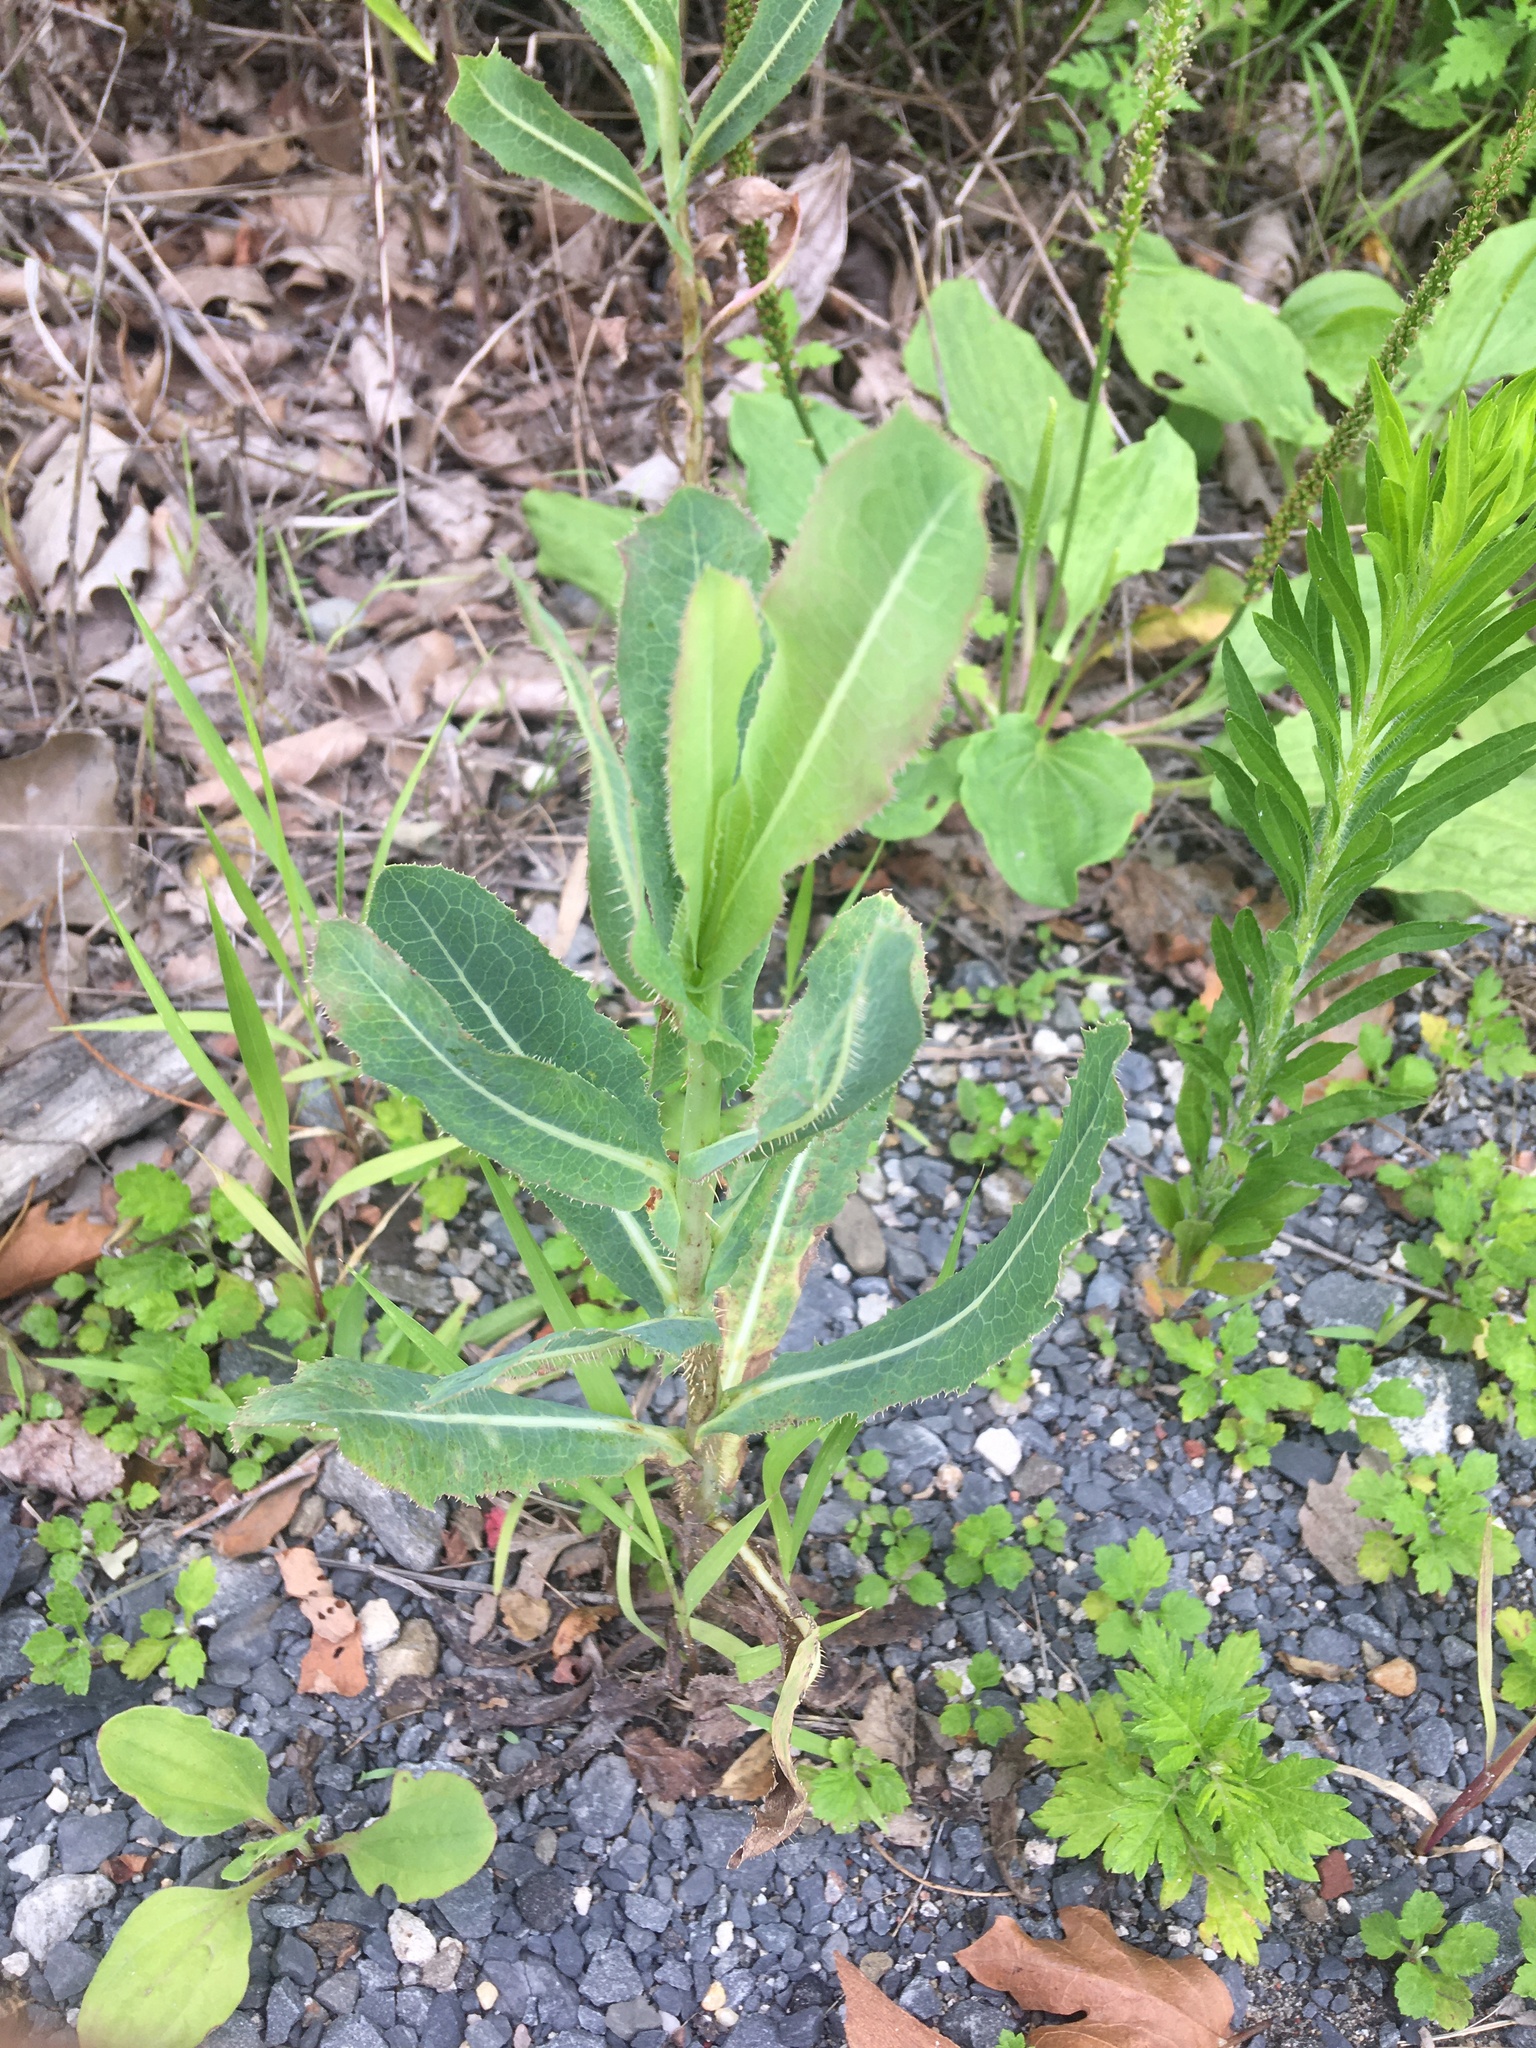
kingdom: Plantae
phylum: Tracheophyta
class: Magnoliopsida
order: Asterales
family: Asteraceae
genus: Lactuca
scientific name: Lactuca serriola
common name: Prickly lettuce
